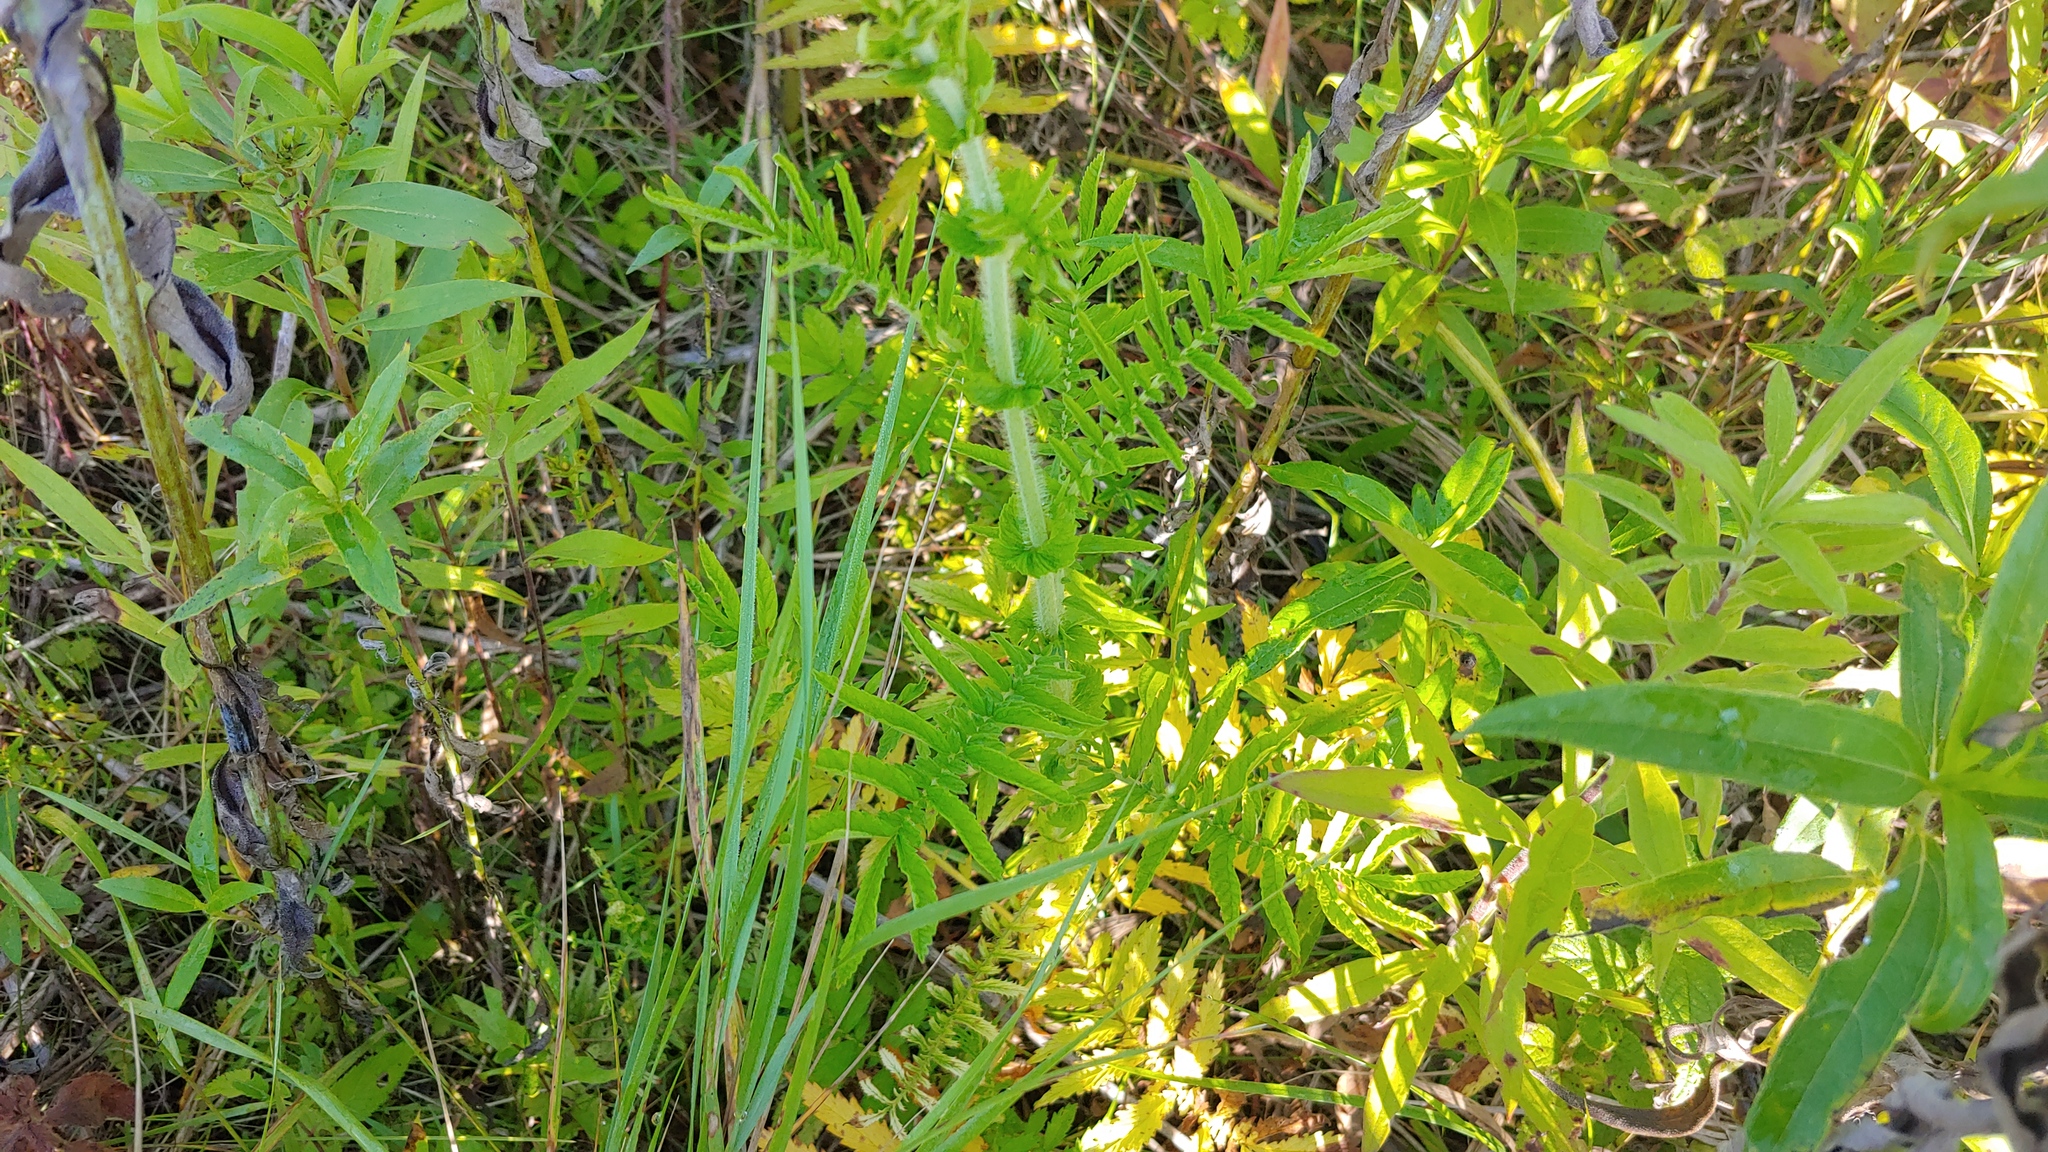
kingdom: Plantae
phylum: Tracheophyta
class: Magnoliopsida
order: Rosales
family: Rosaceae
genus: Agrimonia
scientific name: Agrimonia parviflora
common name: Harvest-lice
